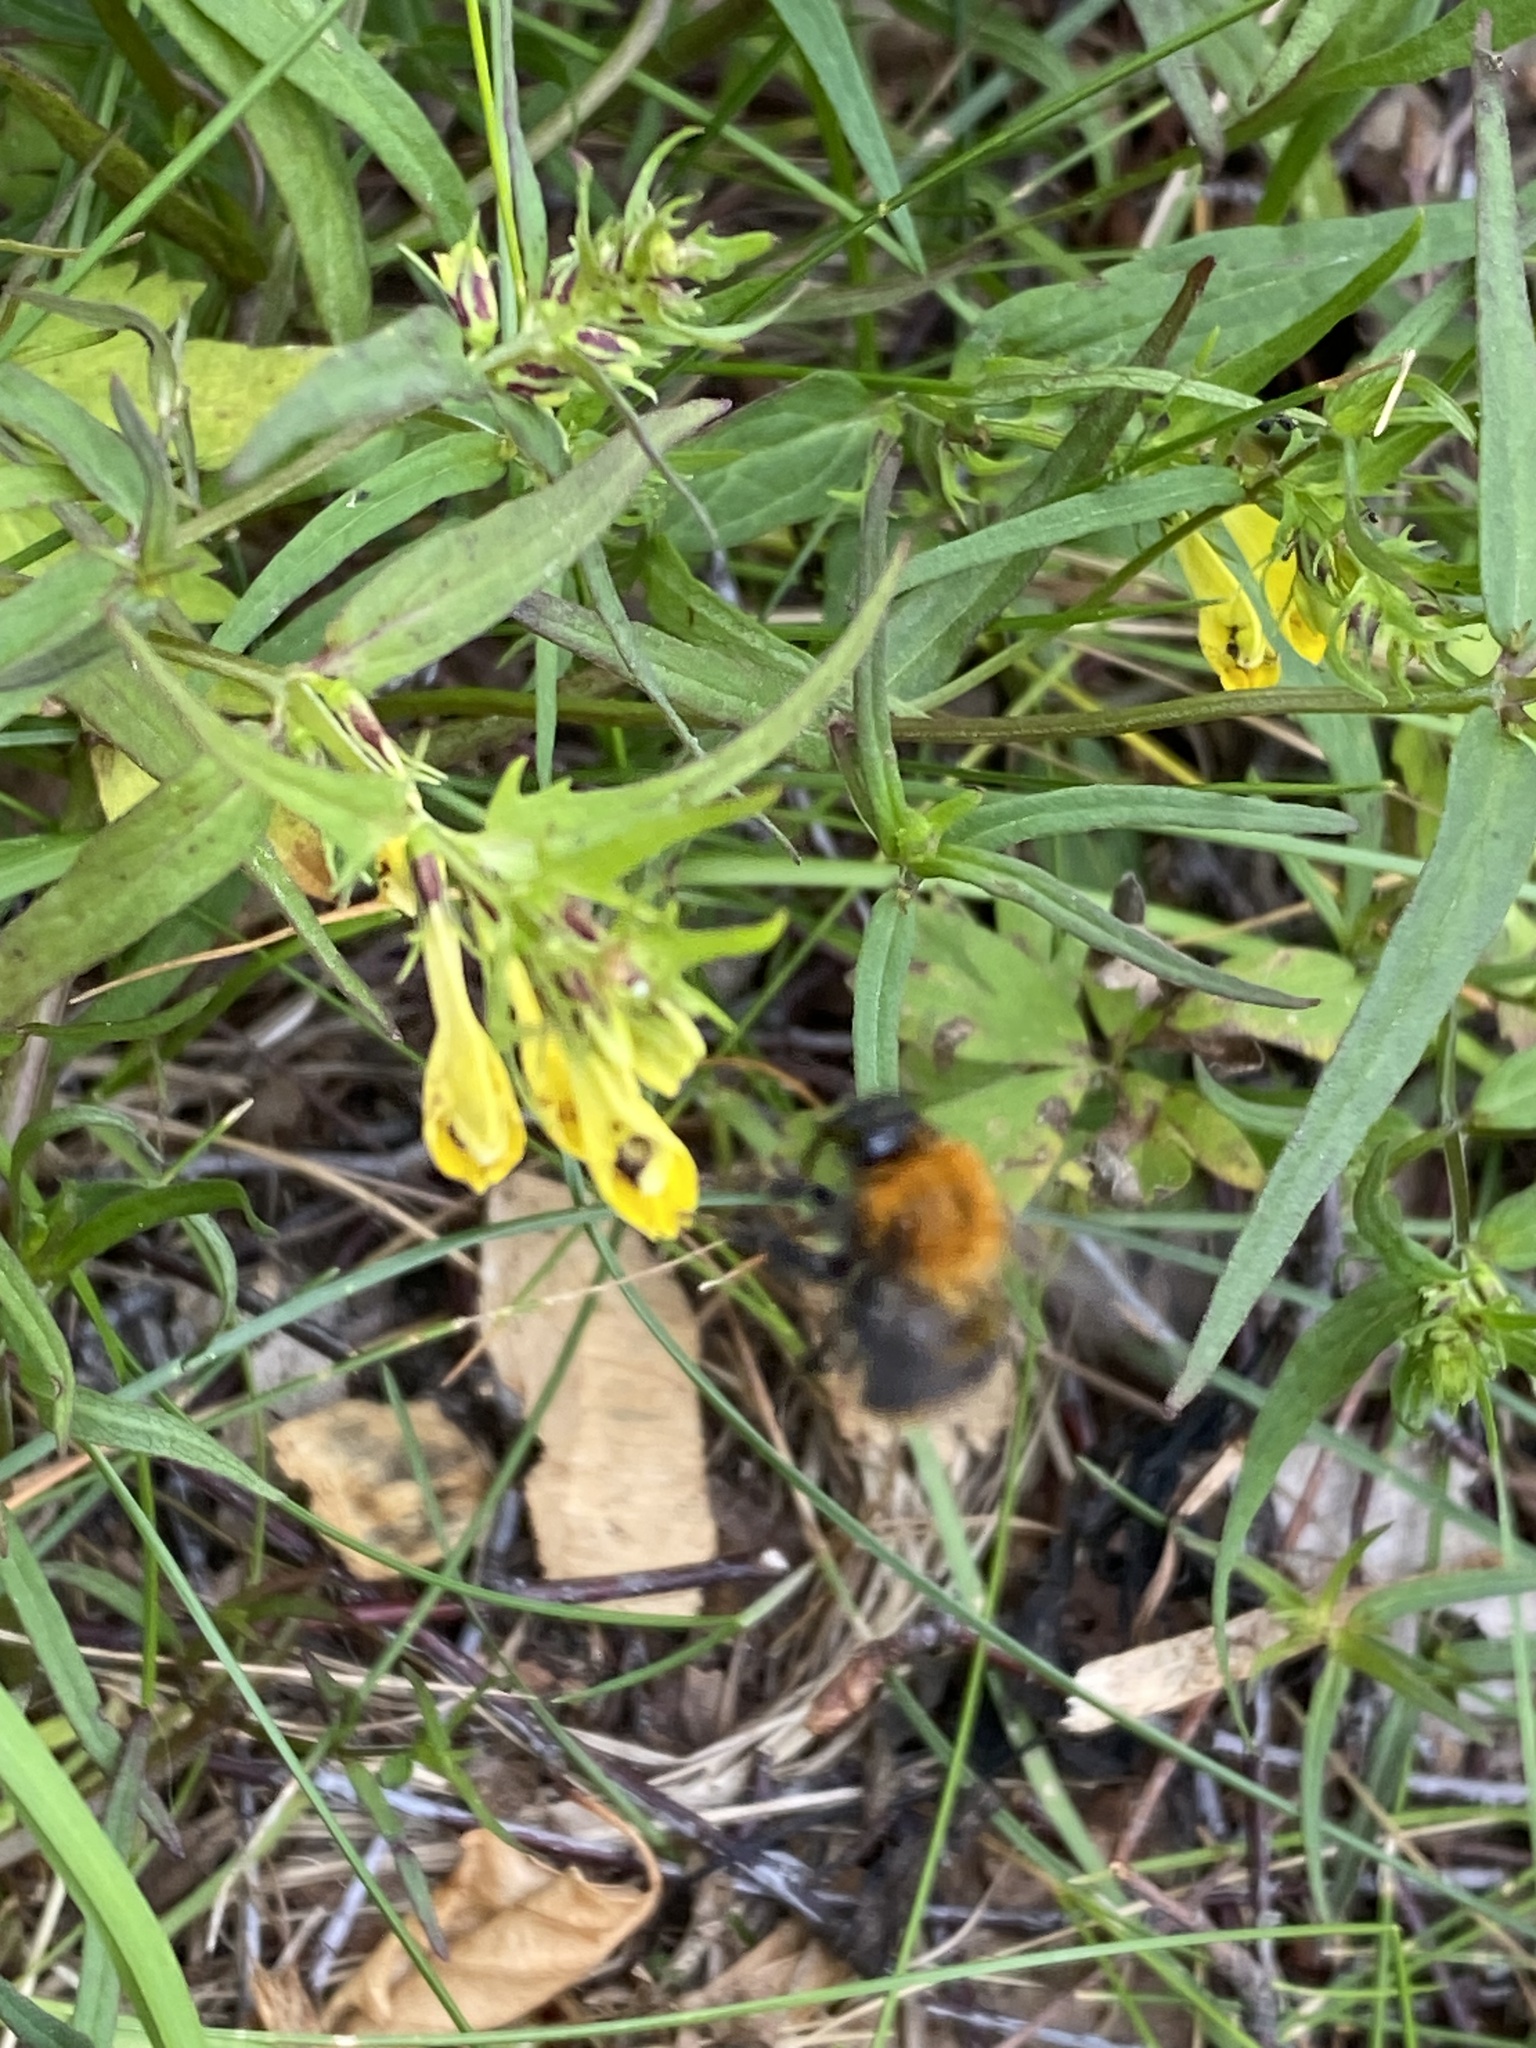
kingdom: Animalia
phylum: Arthropoda
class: Insecta
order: Hymenoptera
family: Apidae
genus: Bombus
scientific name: Bombus pascuorum
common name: Common carder bee
